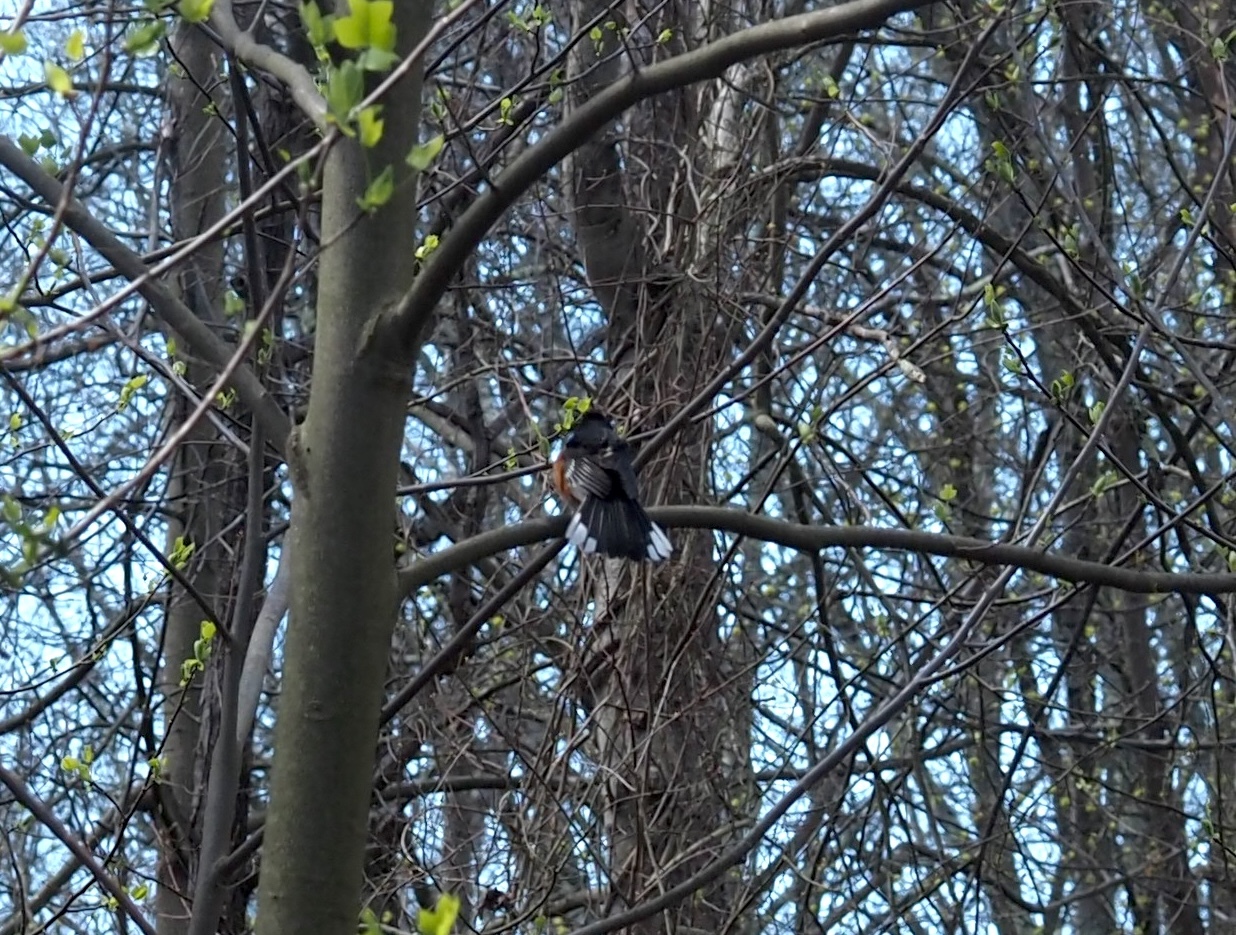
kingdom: Animalia
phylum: Chordata
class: Aves
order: Passeriformes
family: Passerellidae
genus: Pipilo
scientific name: Pipilo erythrophthalmus
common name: Eastern towhee
